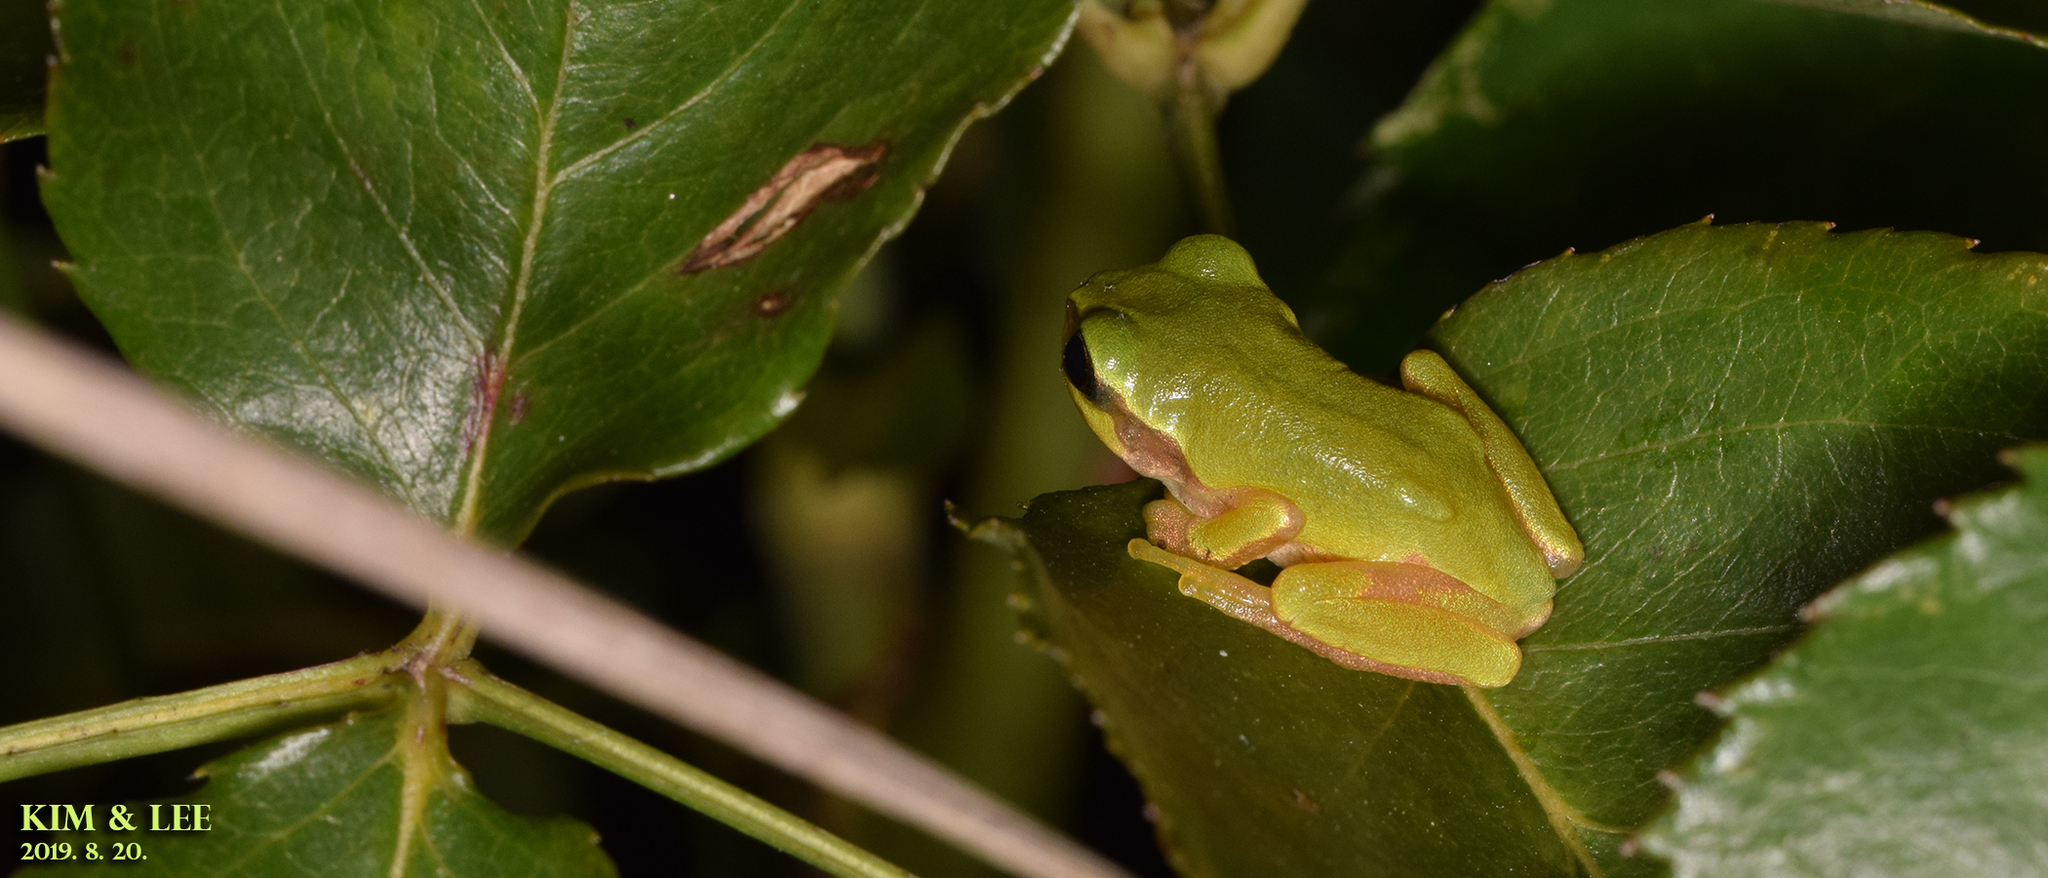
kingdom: Animalia
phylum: Chordata
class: Amphibia
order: Anura
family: Hylidae
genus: Dryophytes
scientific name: Dryophytes japonicus
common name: Japanese treefrog
